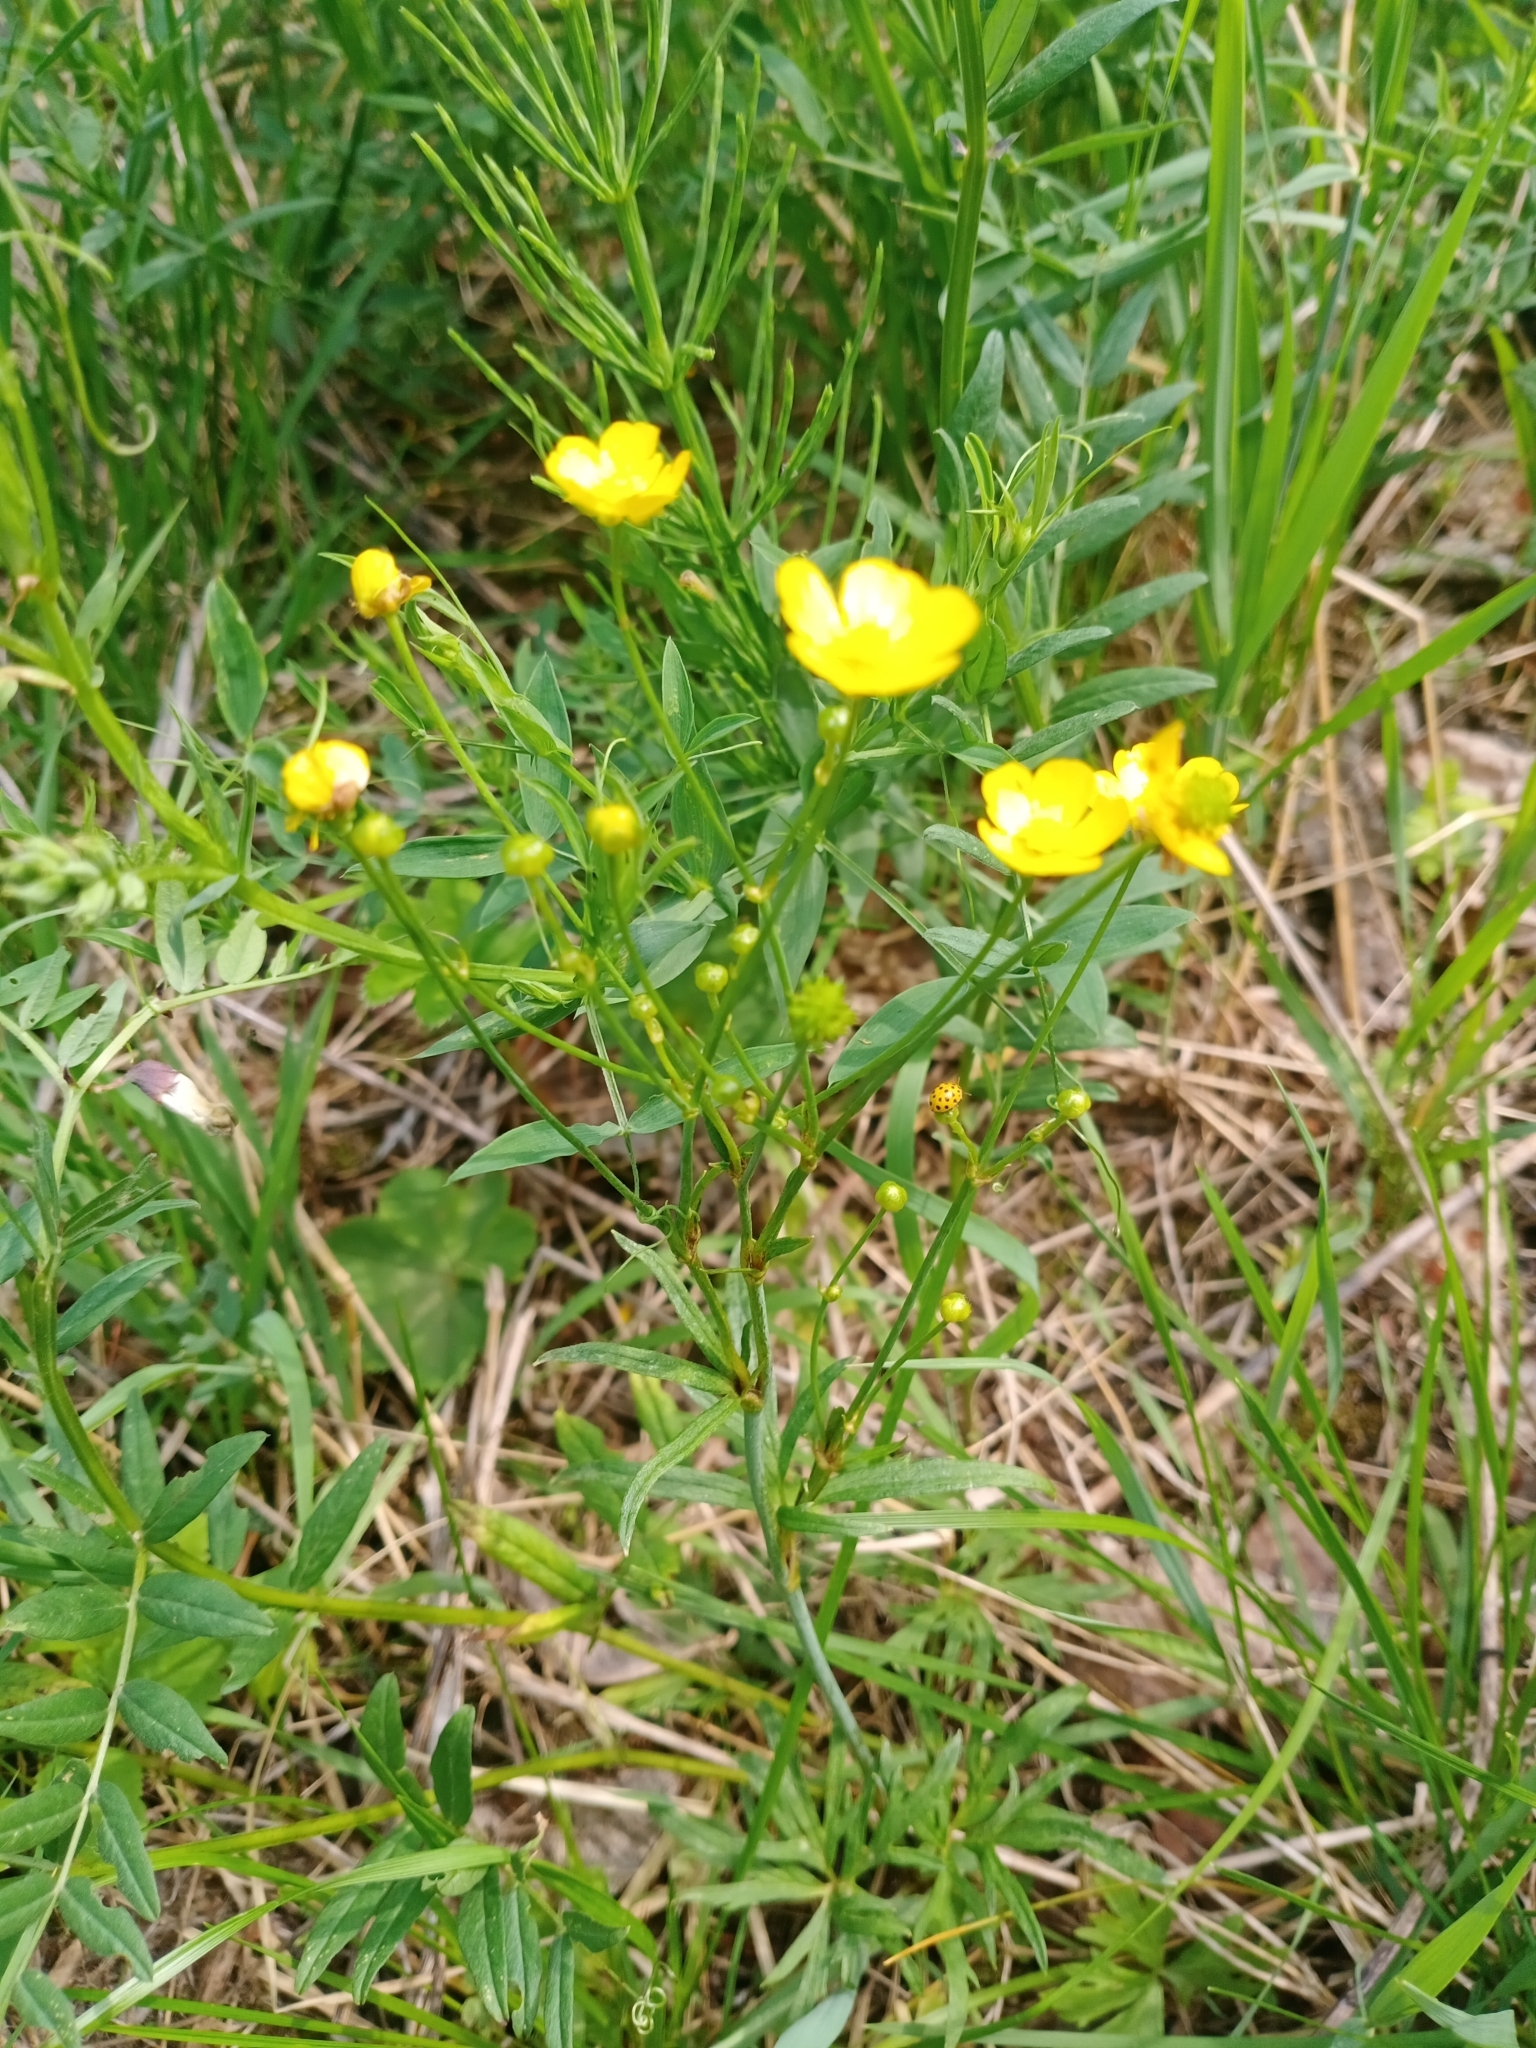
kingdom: Plantae
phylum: Tracheophyta
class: Magnoliopsida
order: Ranunculales
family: Ranunculaceae
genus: Ranunculus
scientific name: Ranunculus acris
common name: Meadow buttercup
